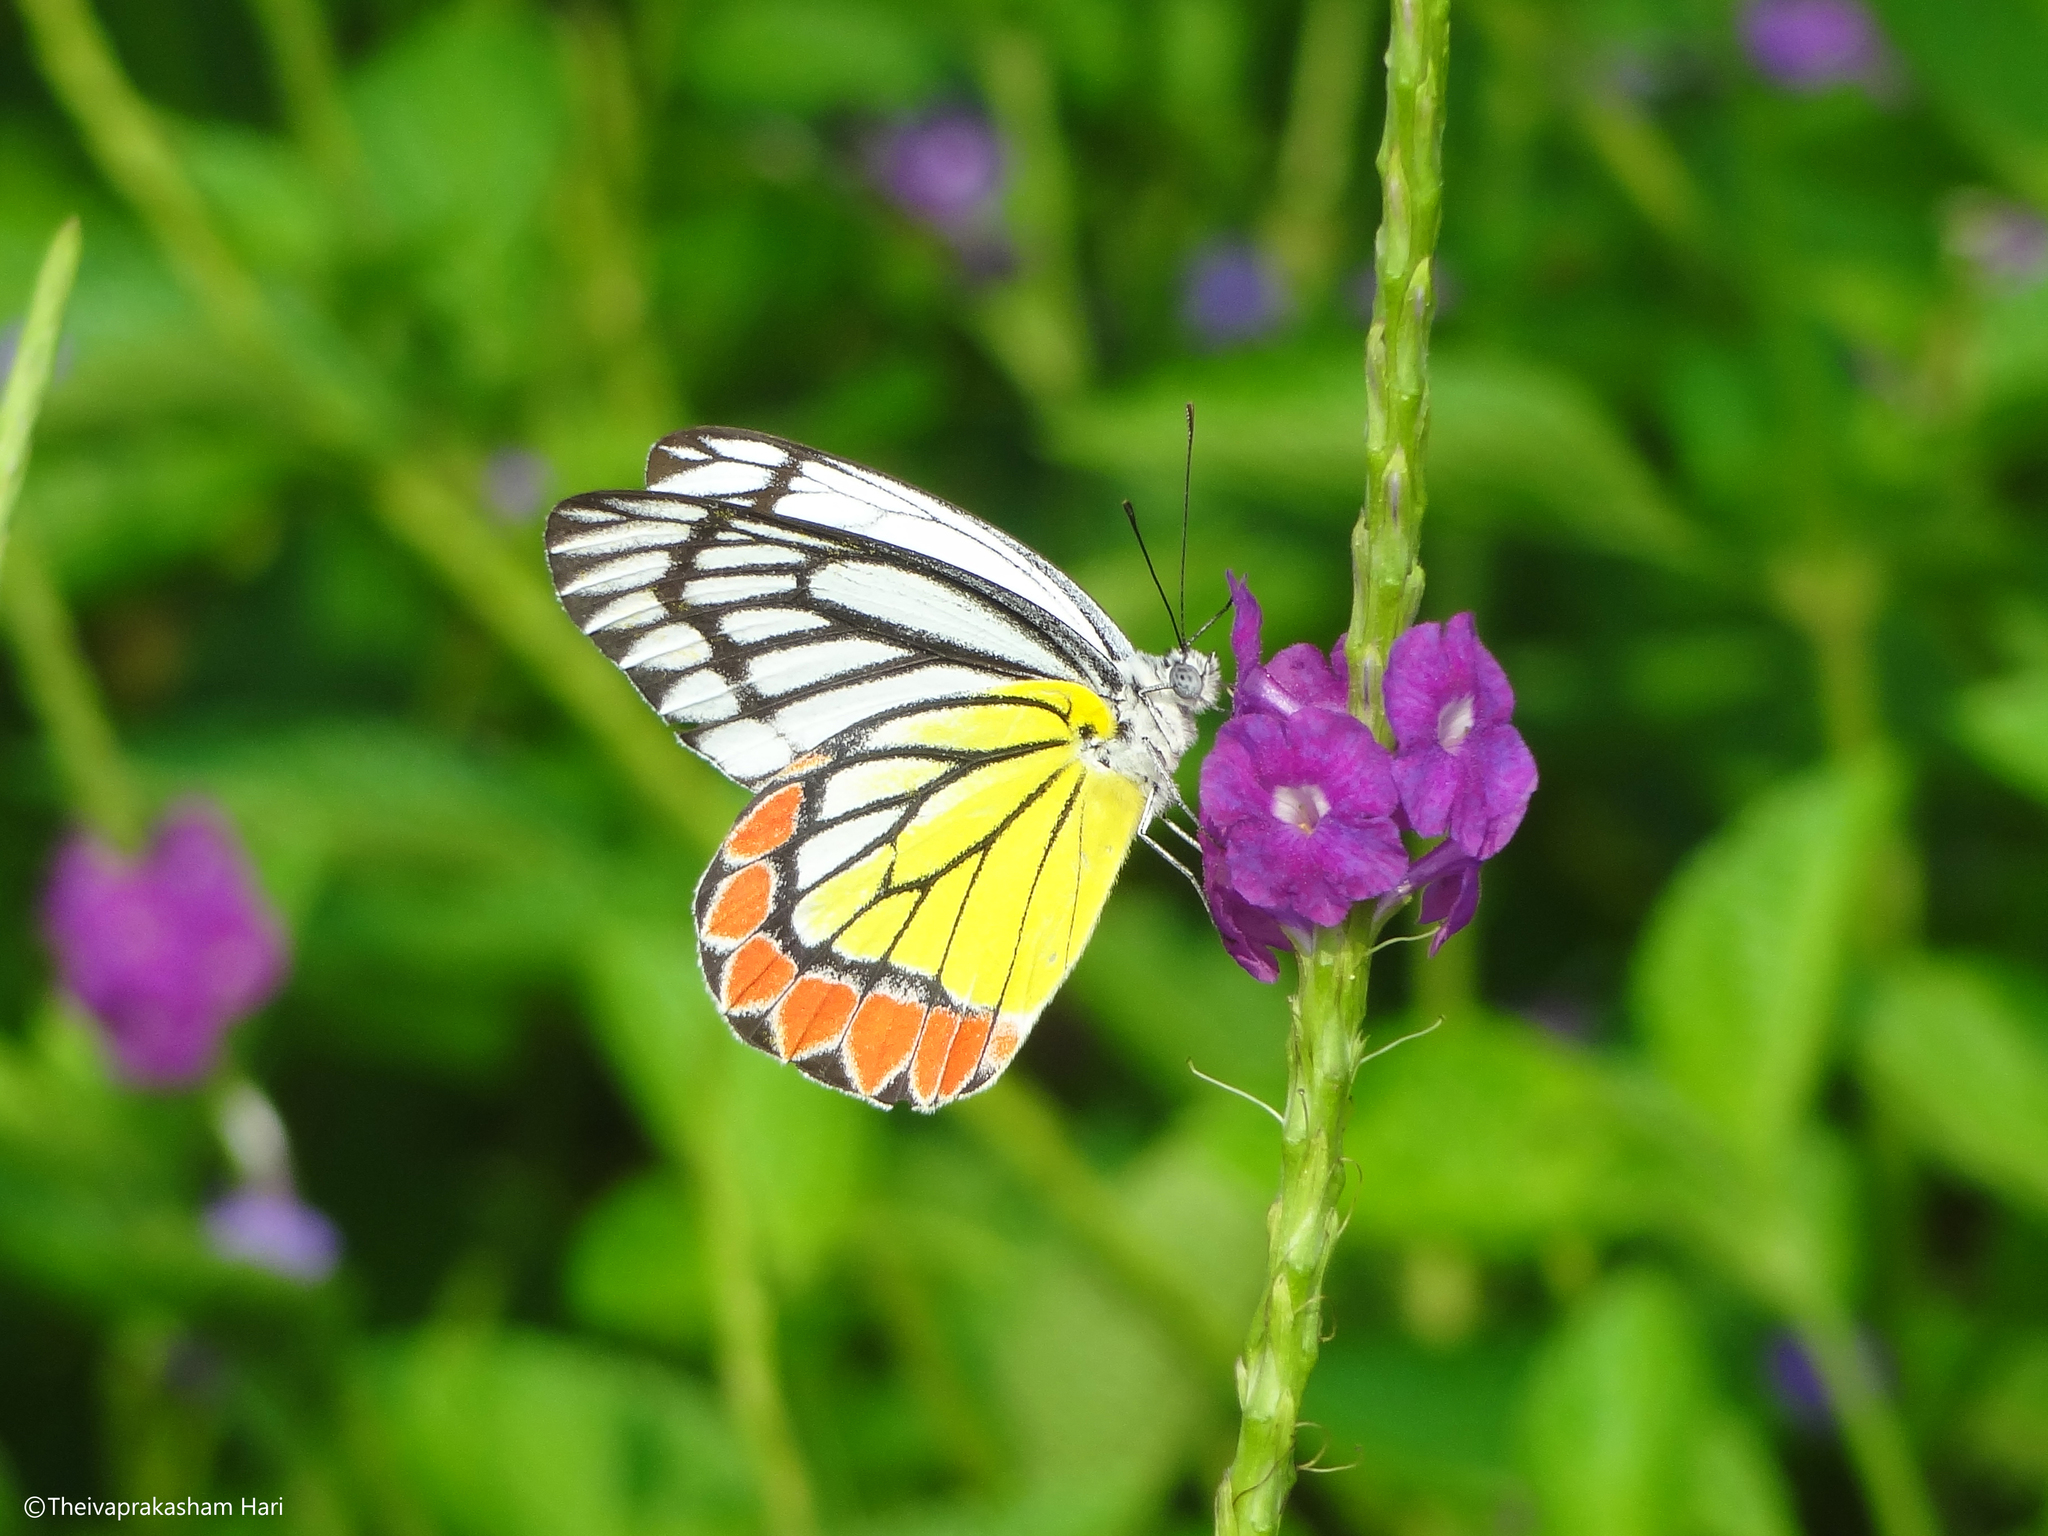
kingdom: Animalia
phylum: Arthropoda
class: Insecta
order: Lepidoptera
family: Pieridae
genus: Delias
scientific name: Delias eucharis
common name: Common jezebel
